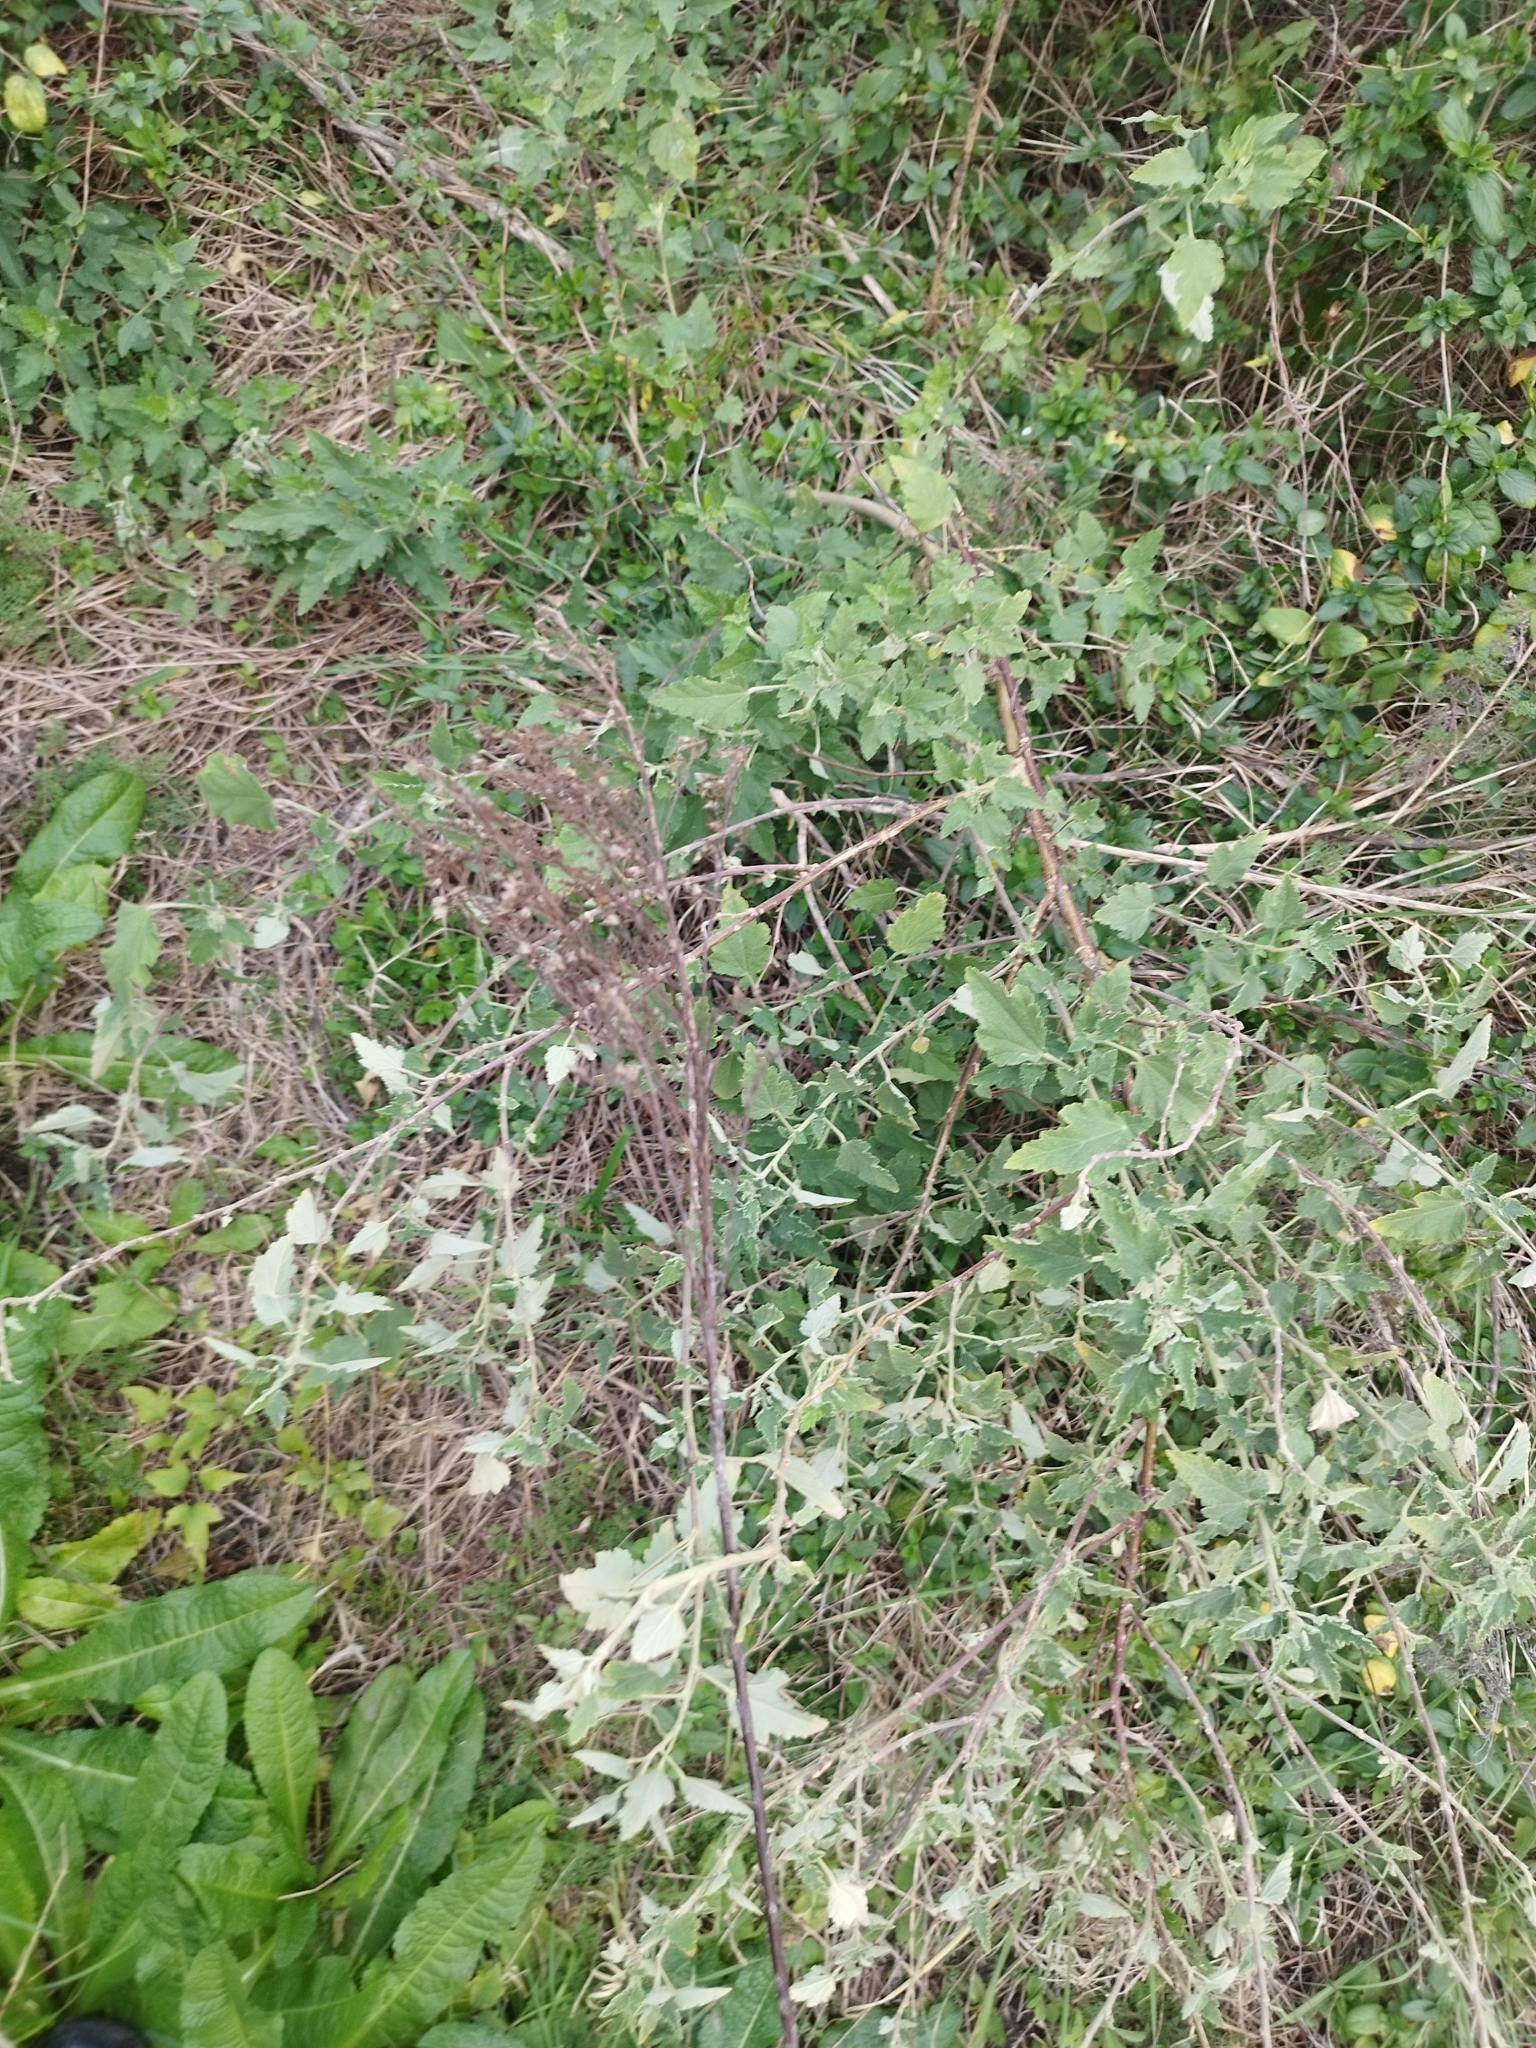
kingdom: Plantae
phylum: Tracheophyta
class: Magnoliopsida
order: Malvales
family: Malvaceae
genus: Sphaeralcea
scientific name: Sphaeralcea bonariensis
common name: Latin globemallow
